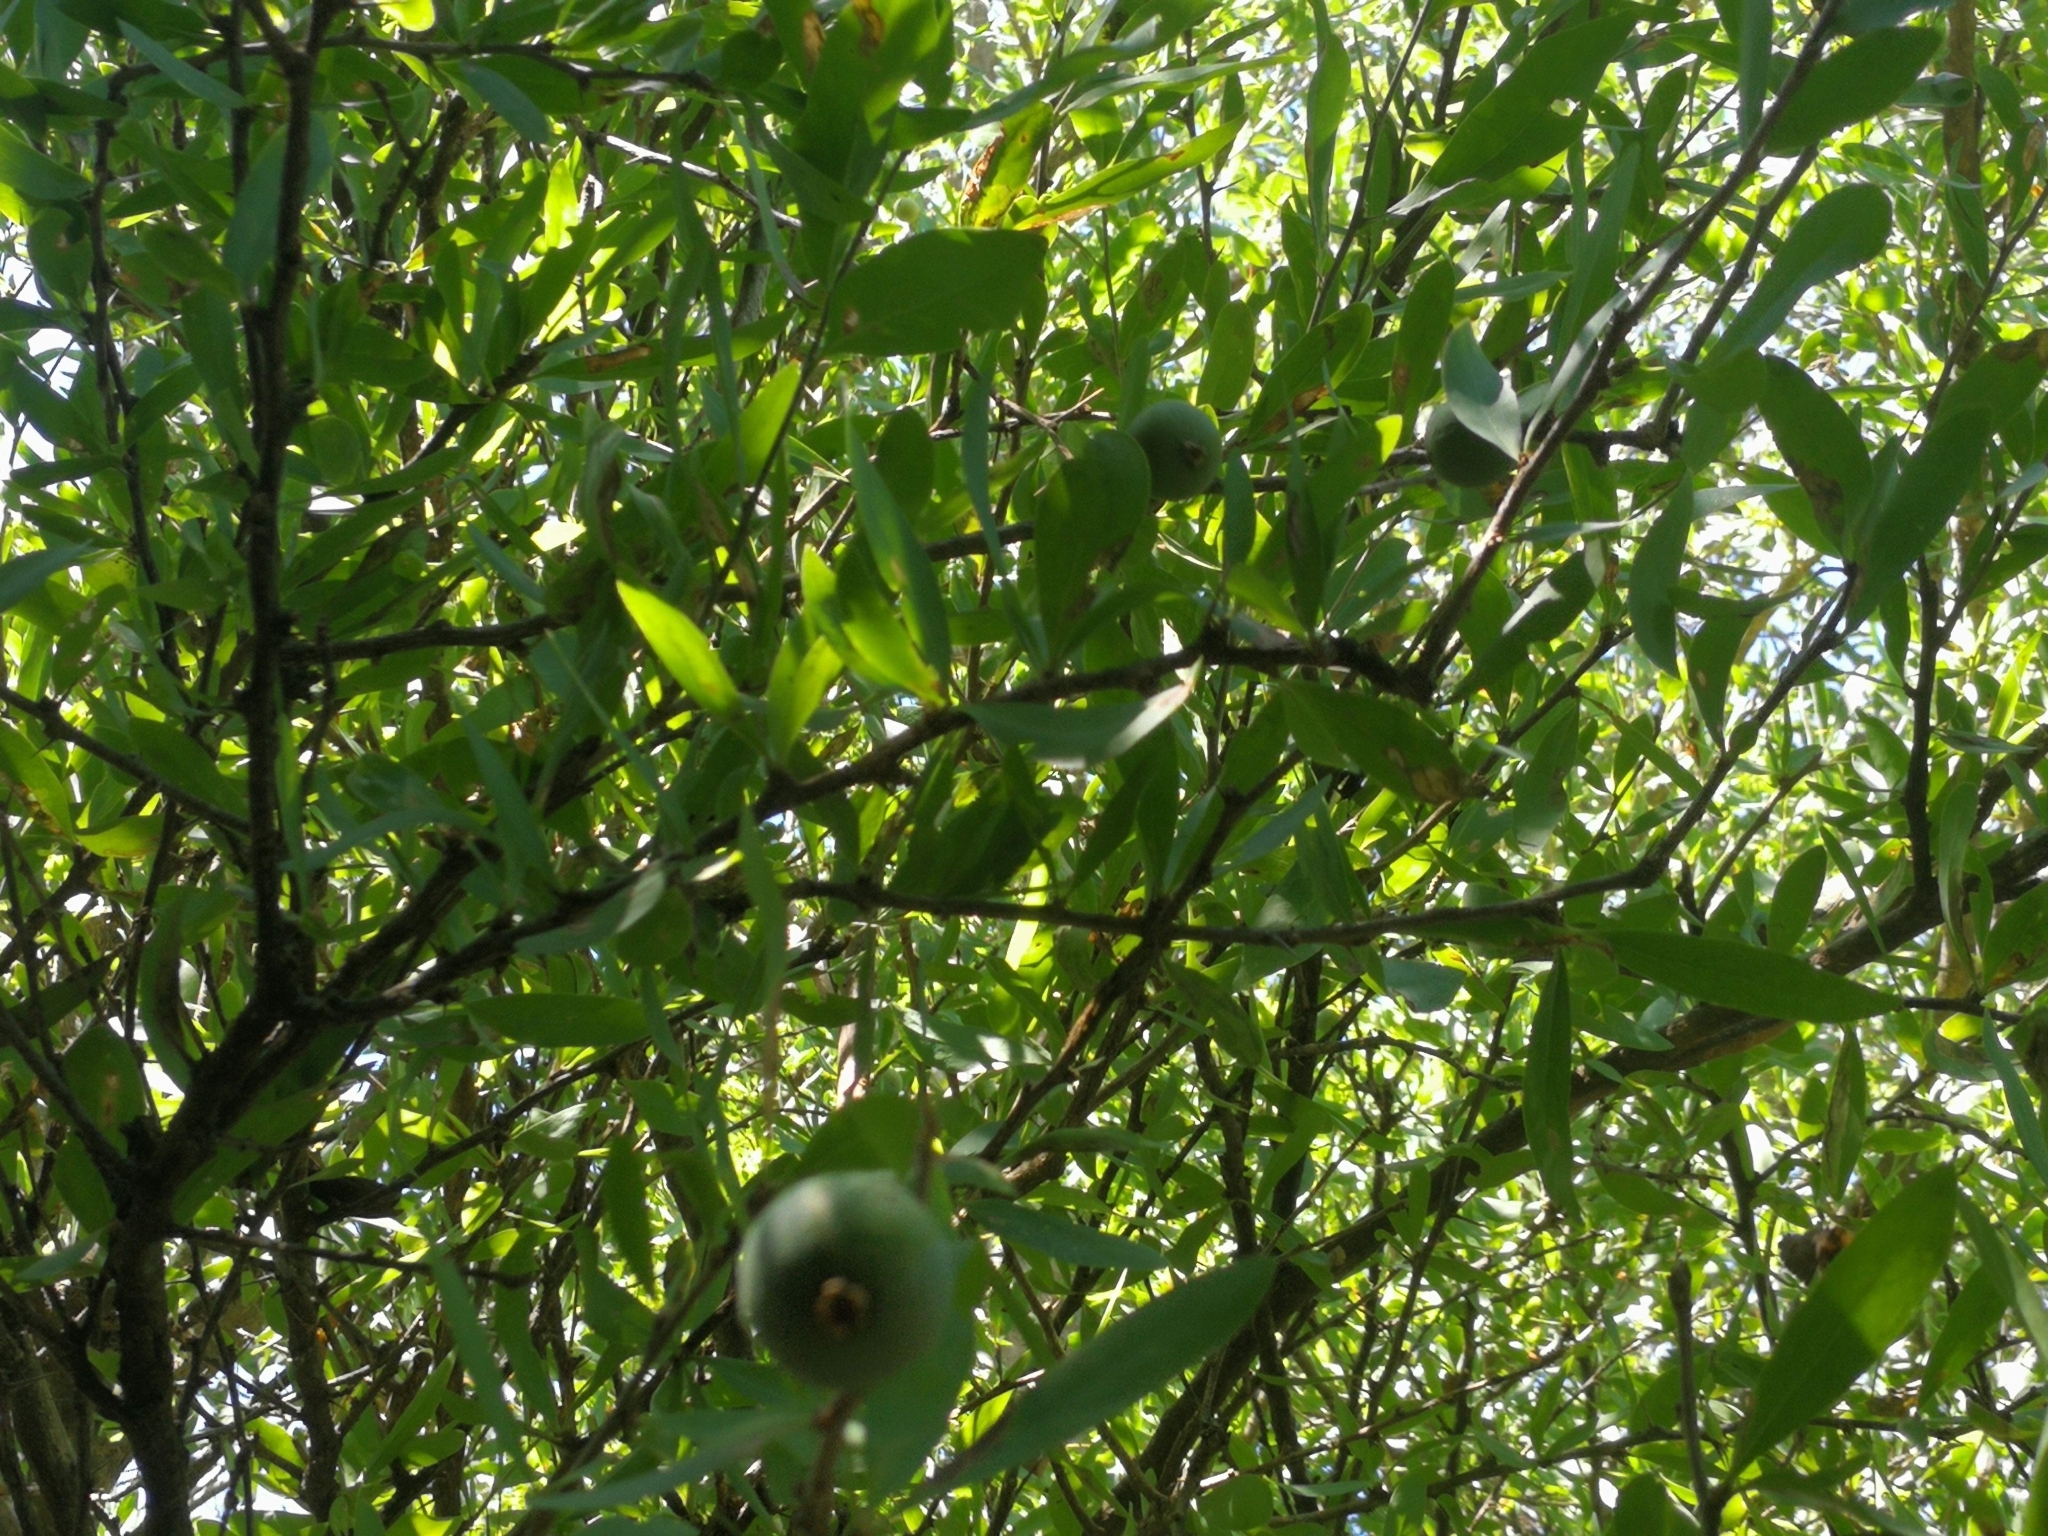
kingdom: Plantae
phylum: Tracheophyta
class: Magnoliopsida
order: Santalales
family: Cervantesiaceae
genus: Acanthosyris
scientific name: Acanthosyris spinescens
